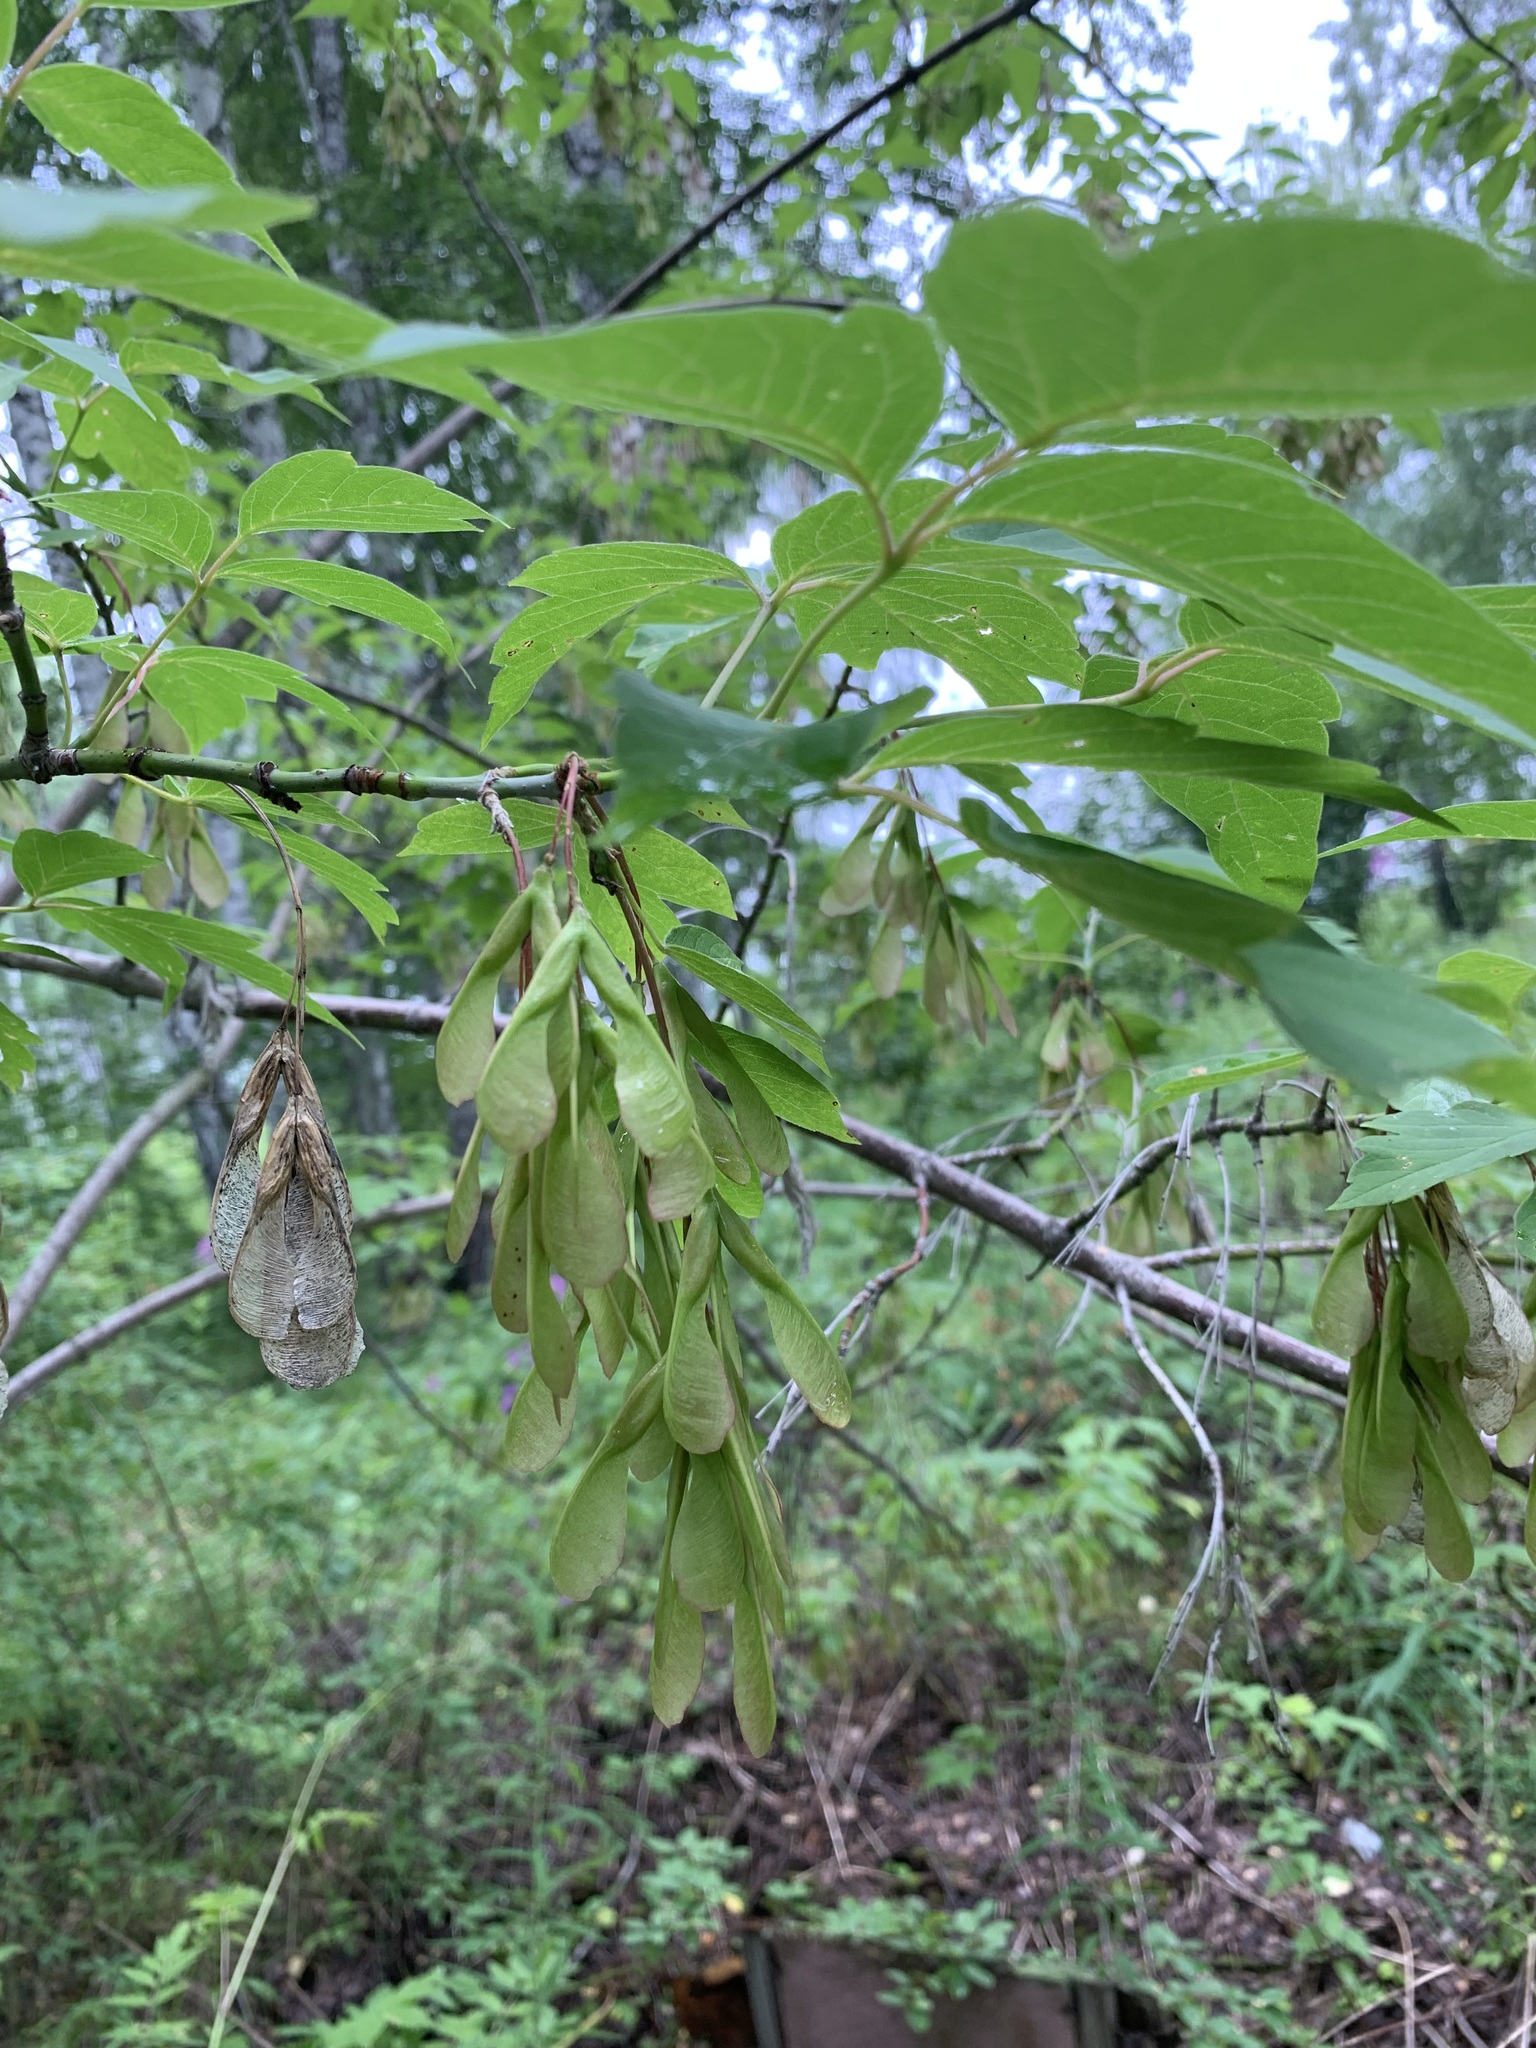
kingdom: Plantae
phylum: Tracheophyta
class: Magnoliopsida
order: Sapindales
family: Sapindaceae
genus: Acer
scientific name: Acer negundo
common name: Ashleaf maple
